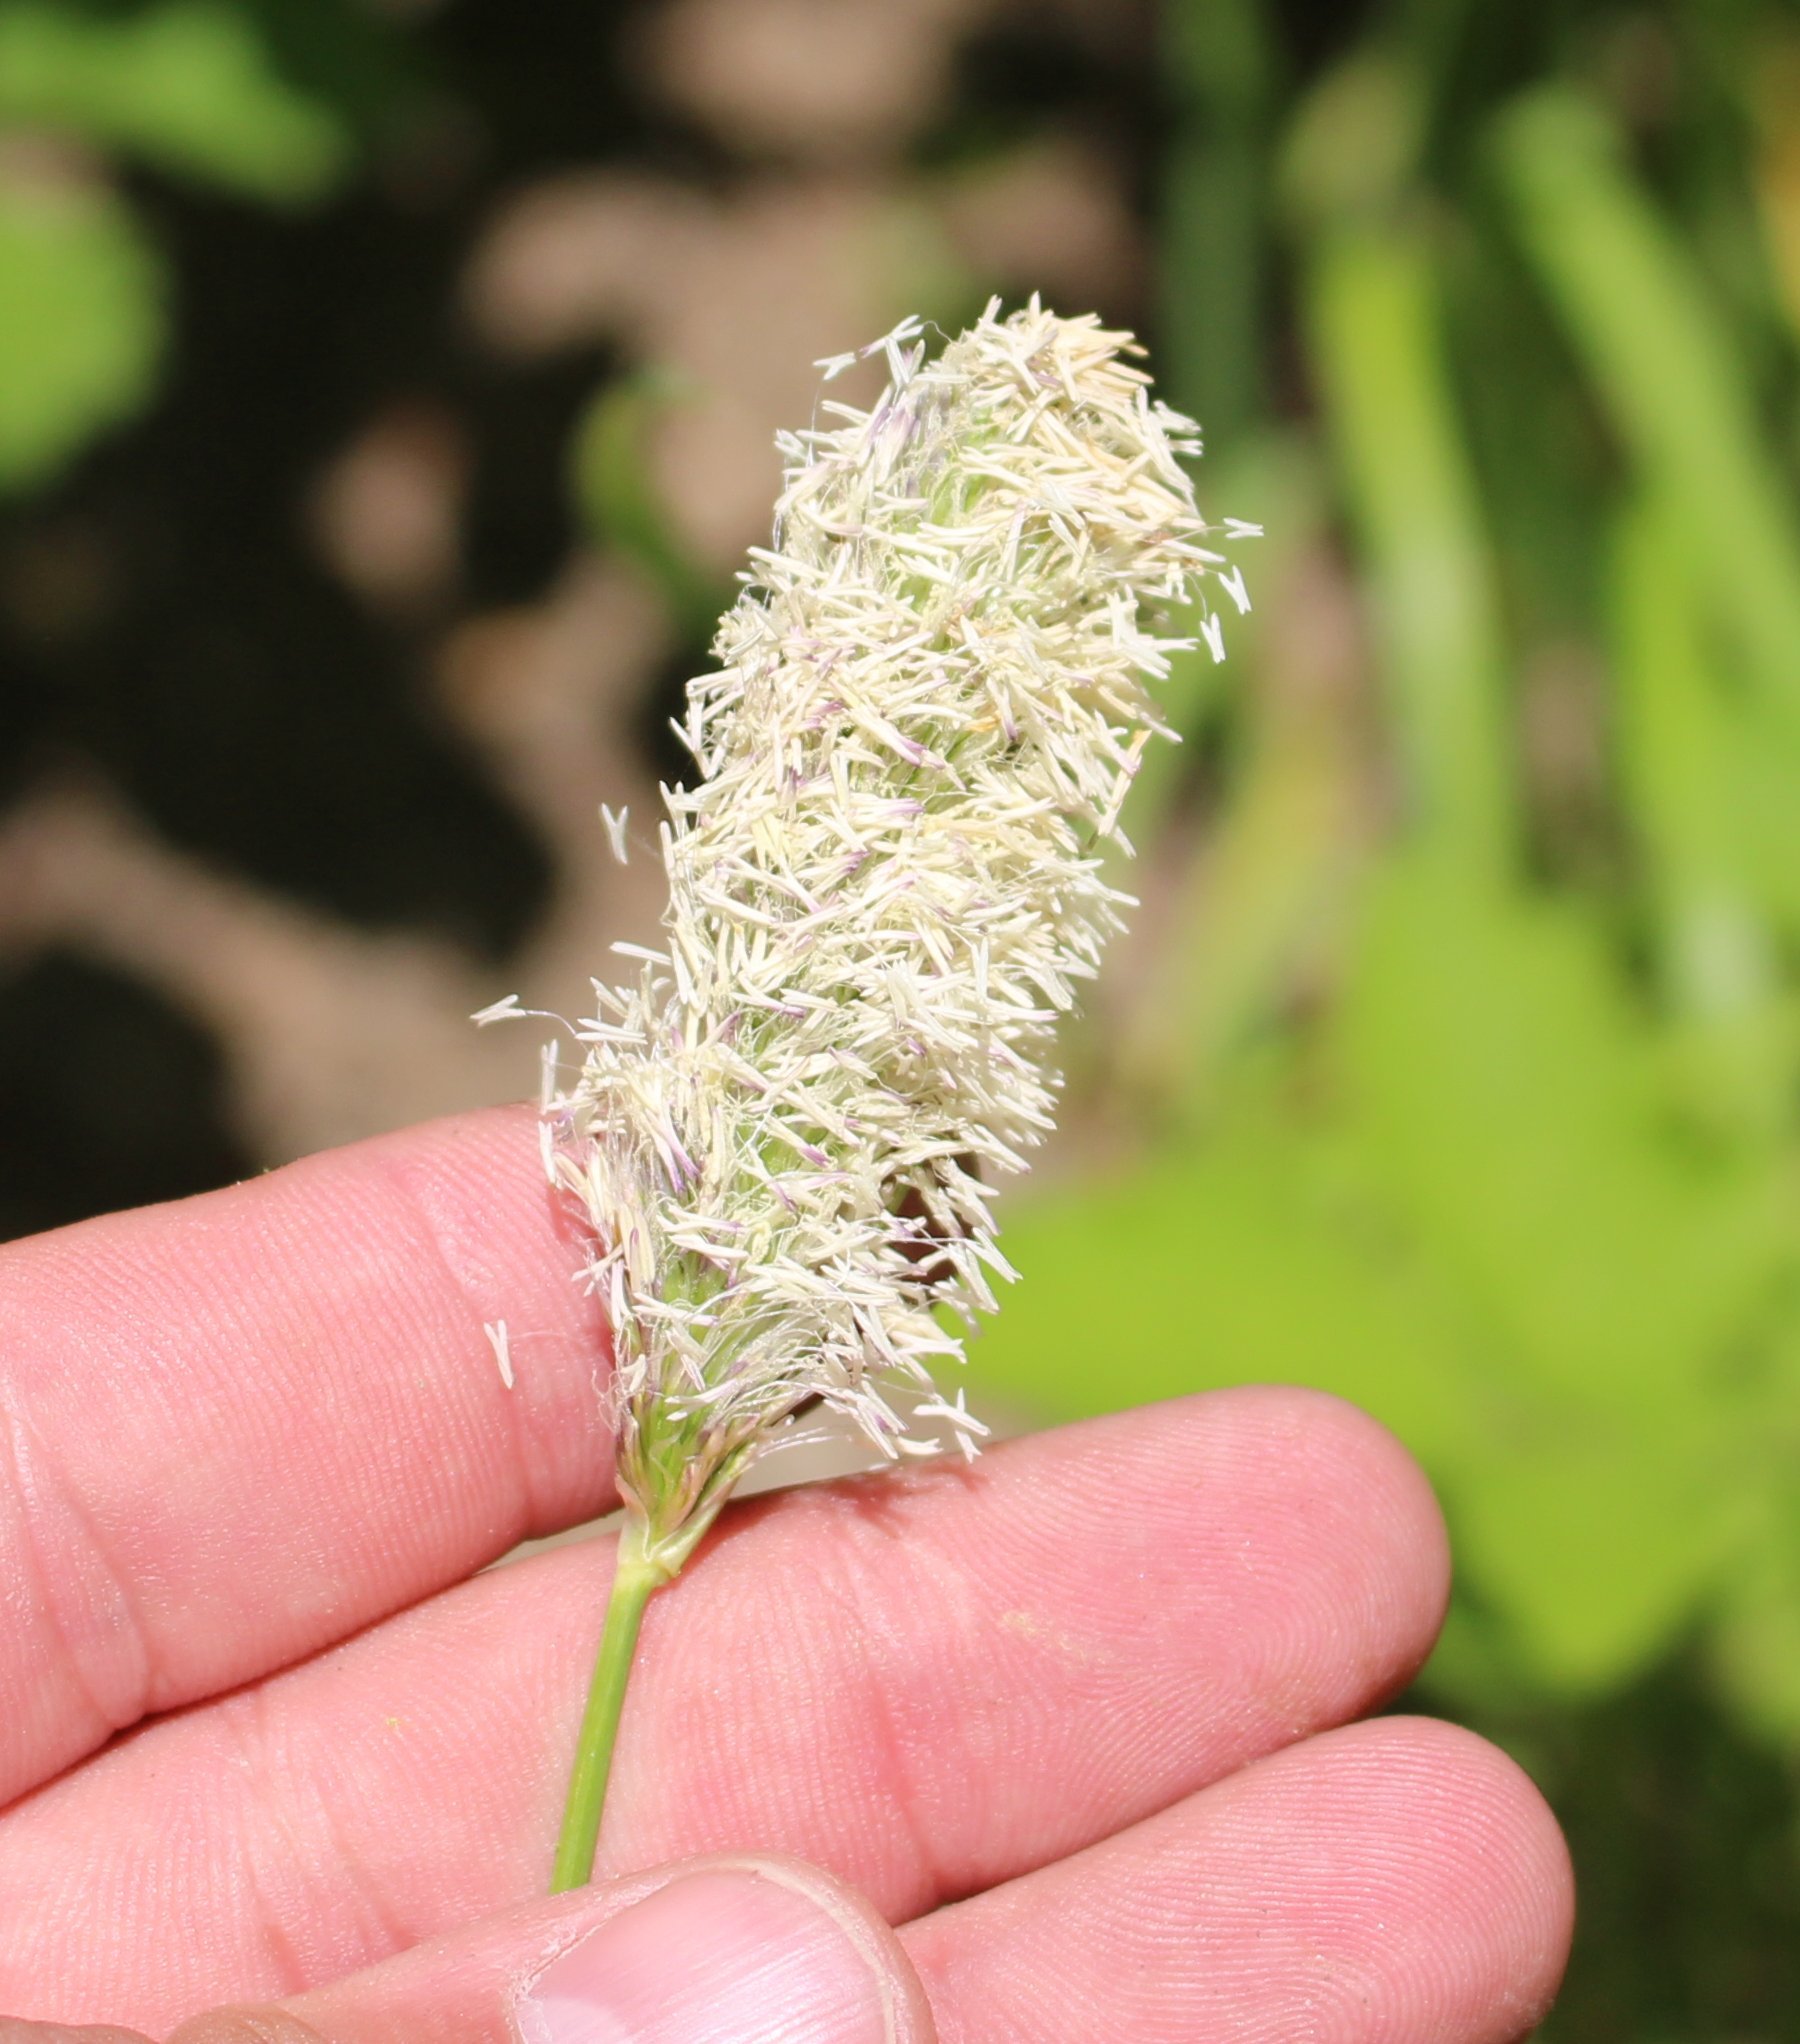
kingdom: Plantae
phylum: Tracheophyta
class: Liliopsida
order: Poales
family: Poaceae
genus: Sesleria
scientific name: Sesleria alba
